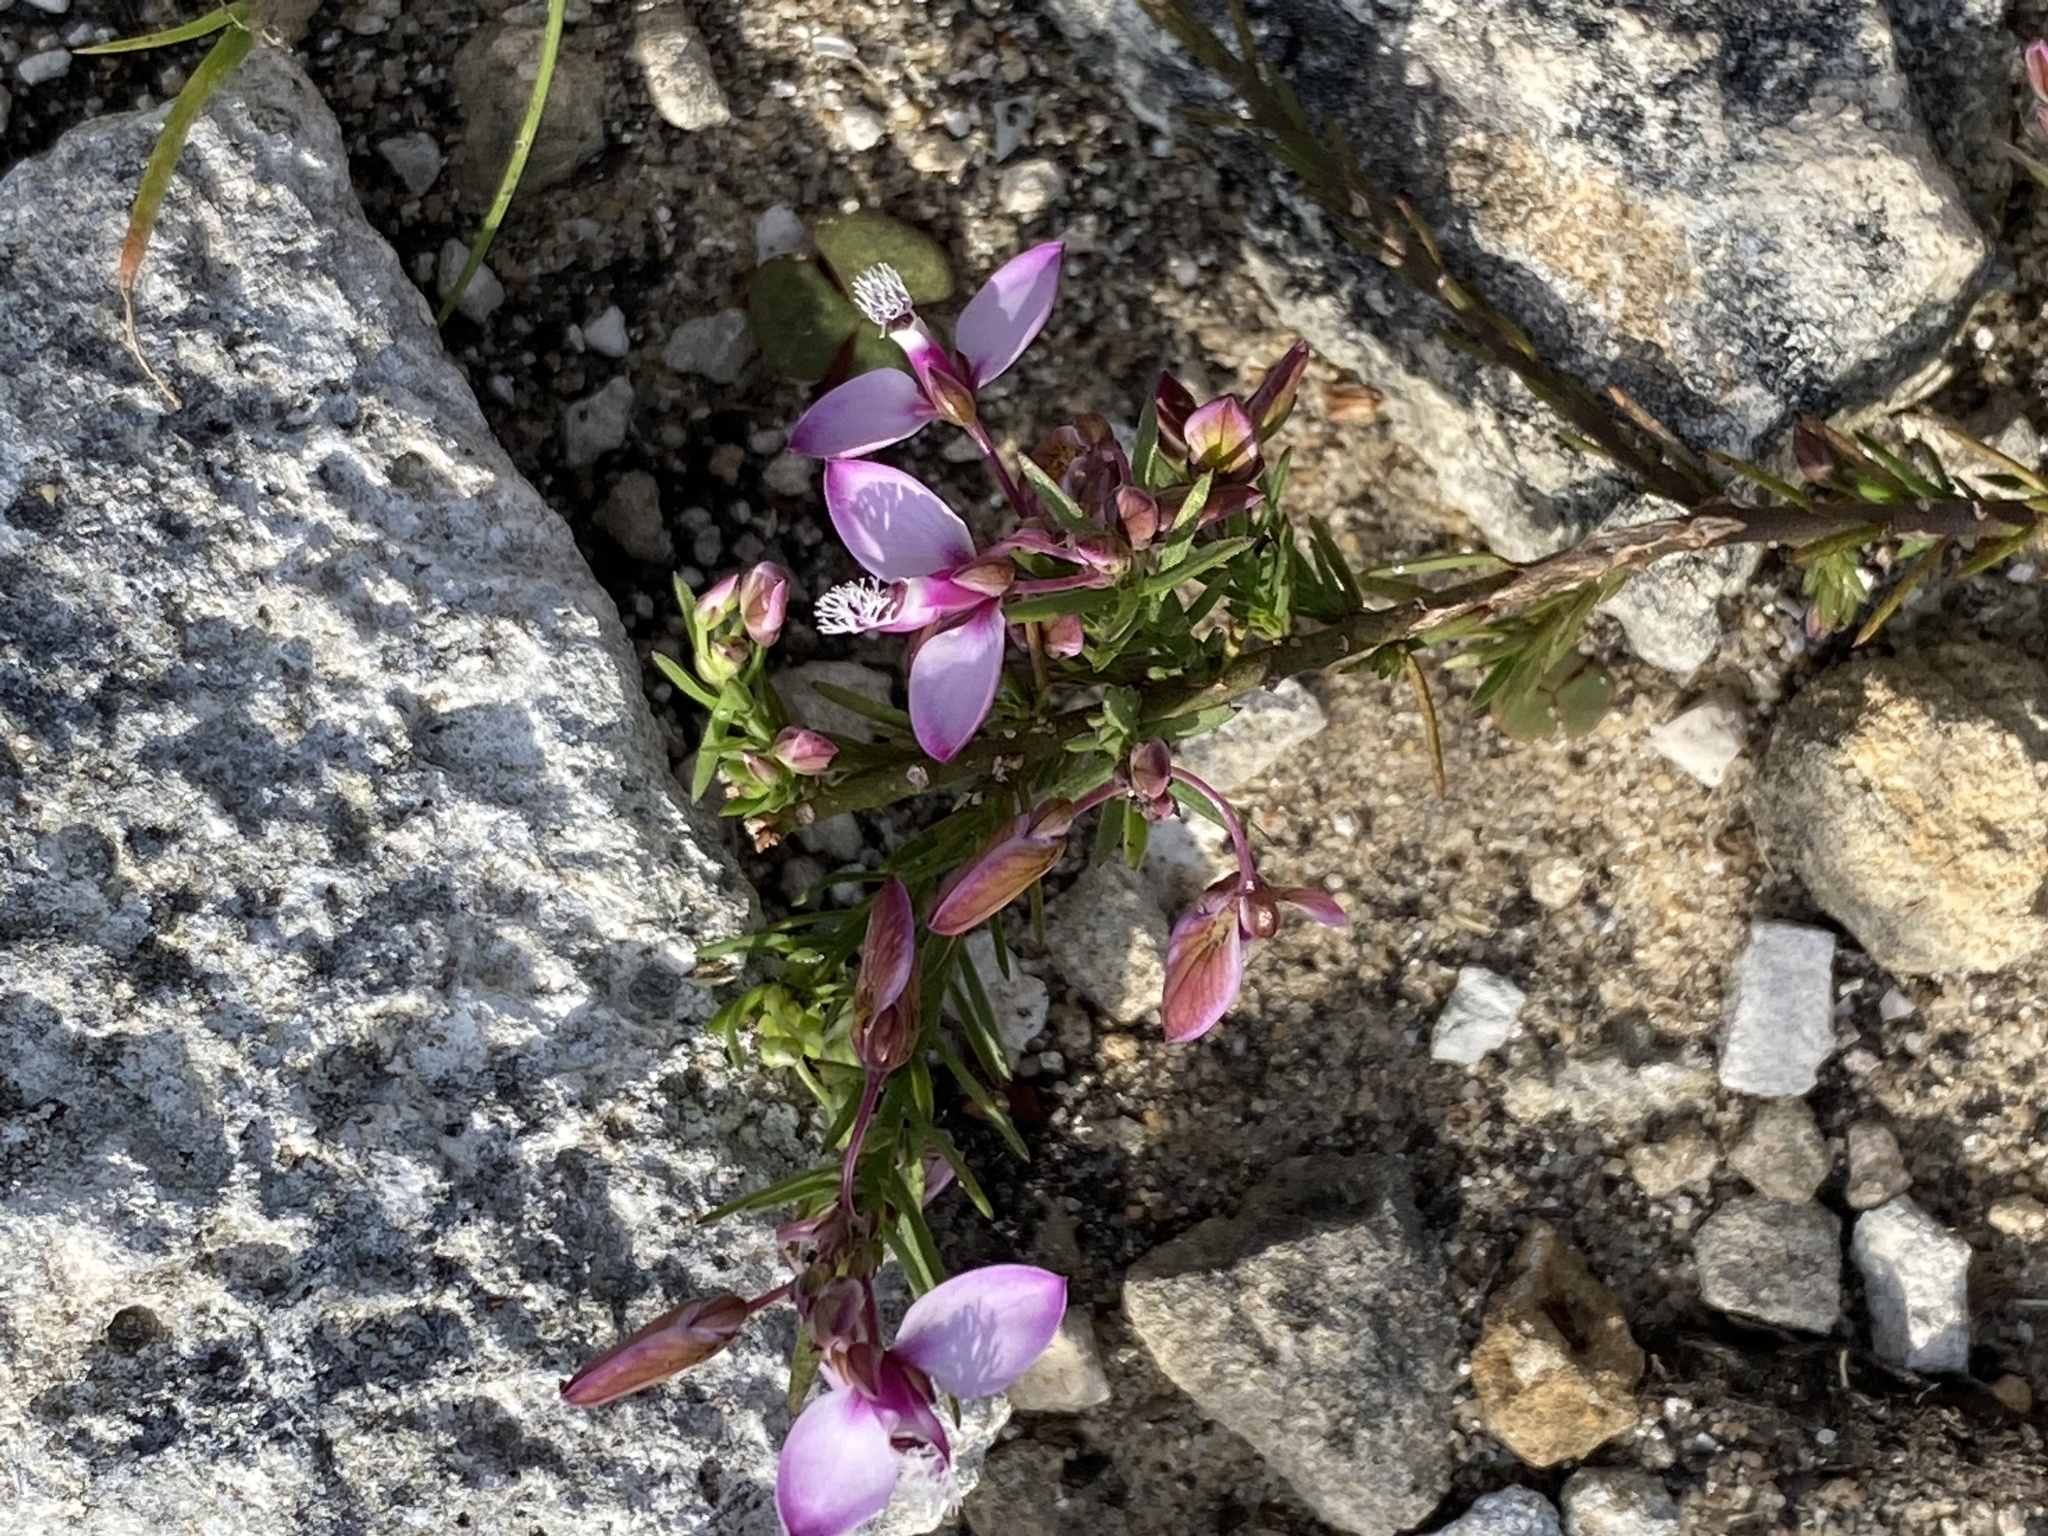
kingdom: Plantae
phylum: Tracheophyta
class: Magnoliopsida
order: Fabales
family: Polygalaceae
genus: Polygala
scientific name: Polygala meridionalis
